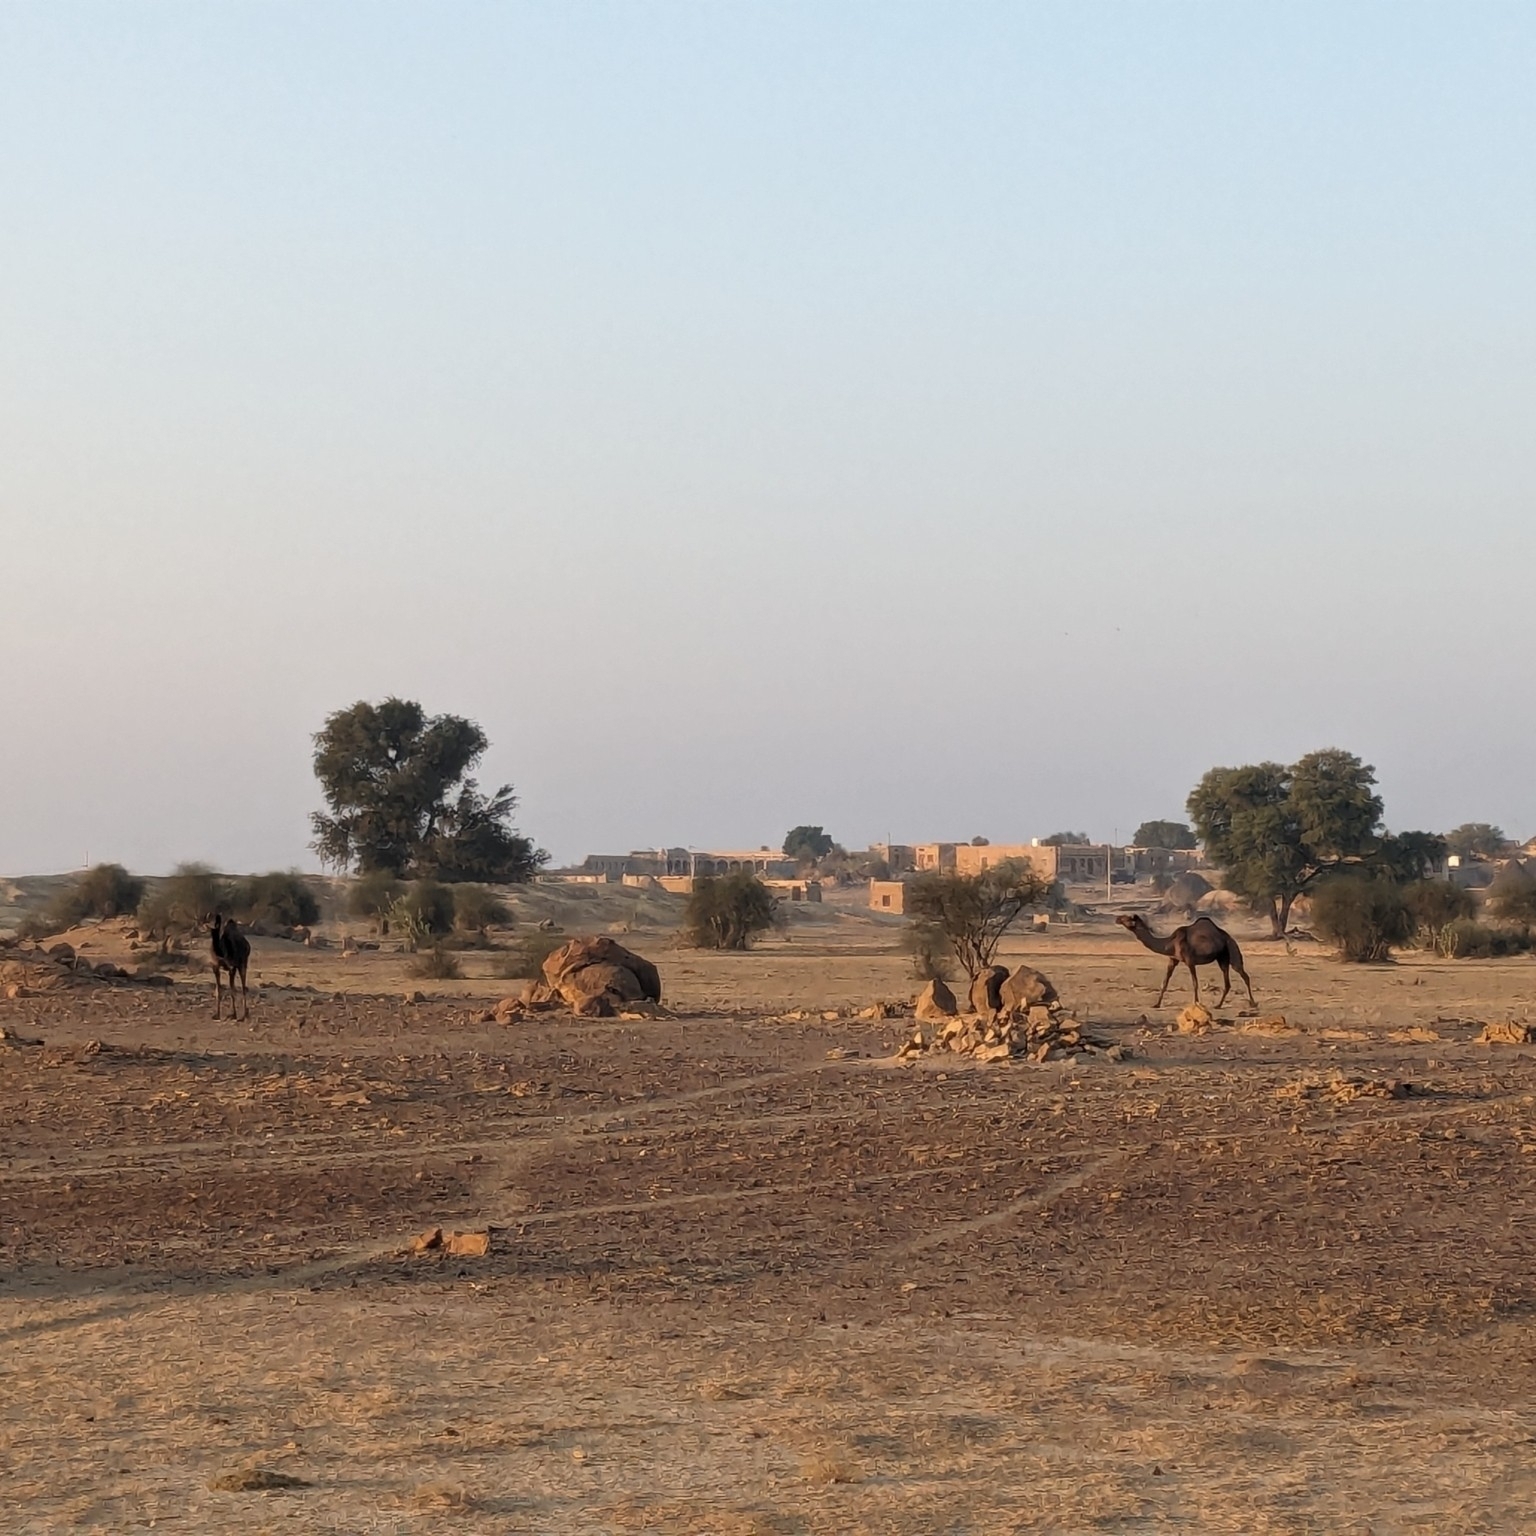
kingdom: Animalia
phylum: Chordata
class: Mammalia
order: Artiodactyla
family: Camelidae
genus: Camelus
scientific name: Camelus dromedarius
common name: One-humped camel
